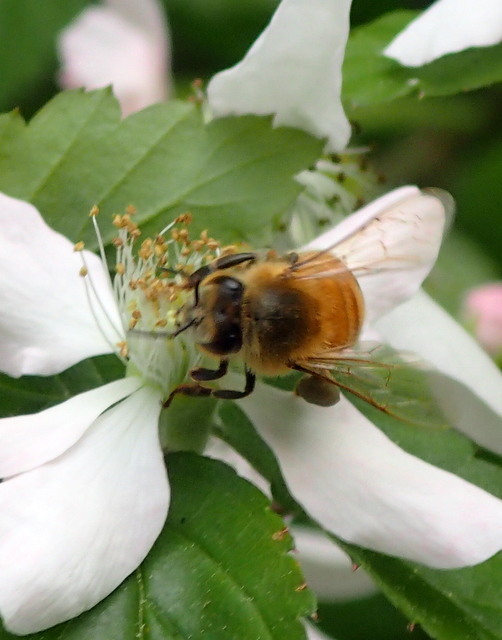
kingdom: Animalia
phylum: Arthropoda
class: Insecta
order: Hymenoptera
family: Apidae
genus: Apis
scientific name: Apis mellifera
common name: Honey bee
